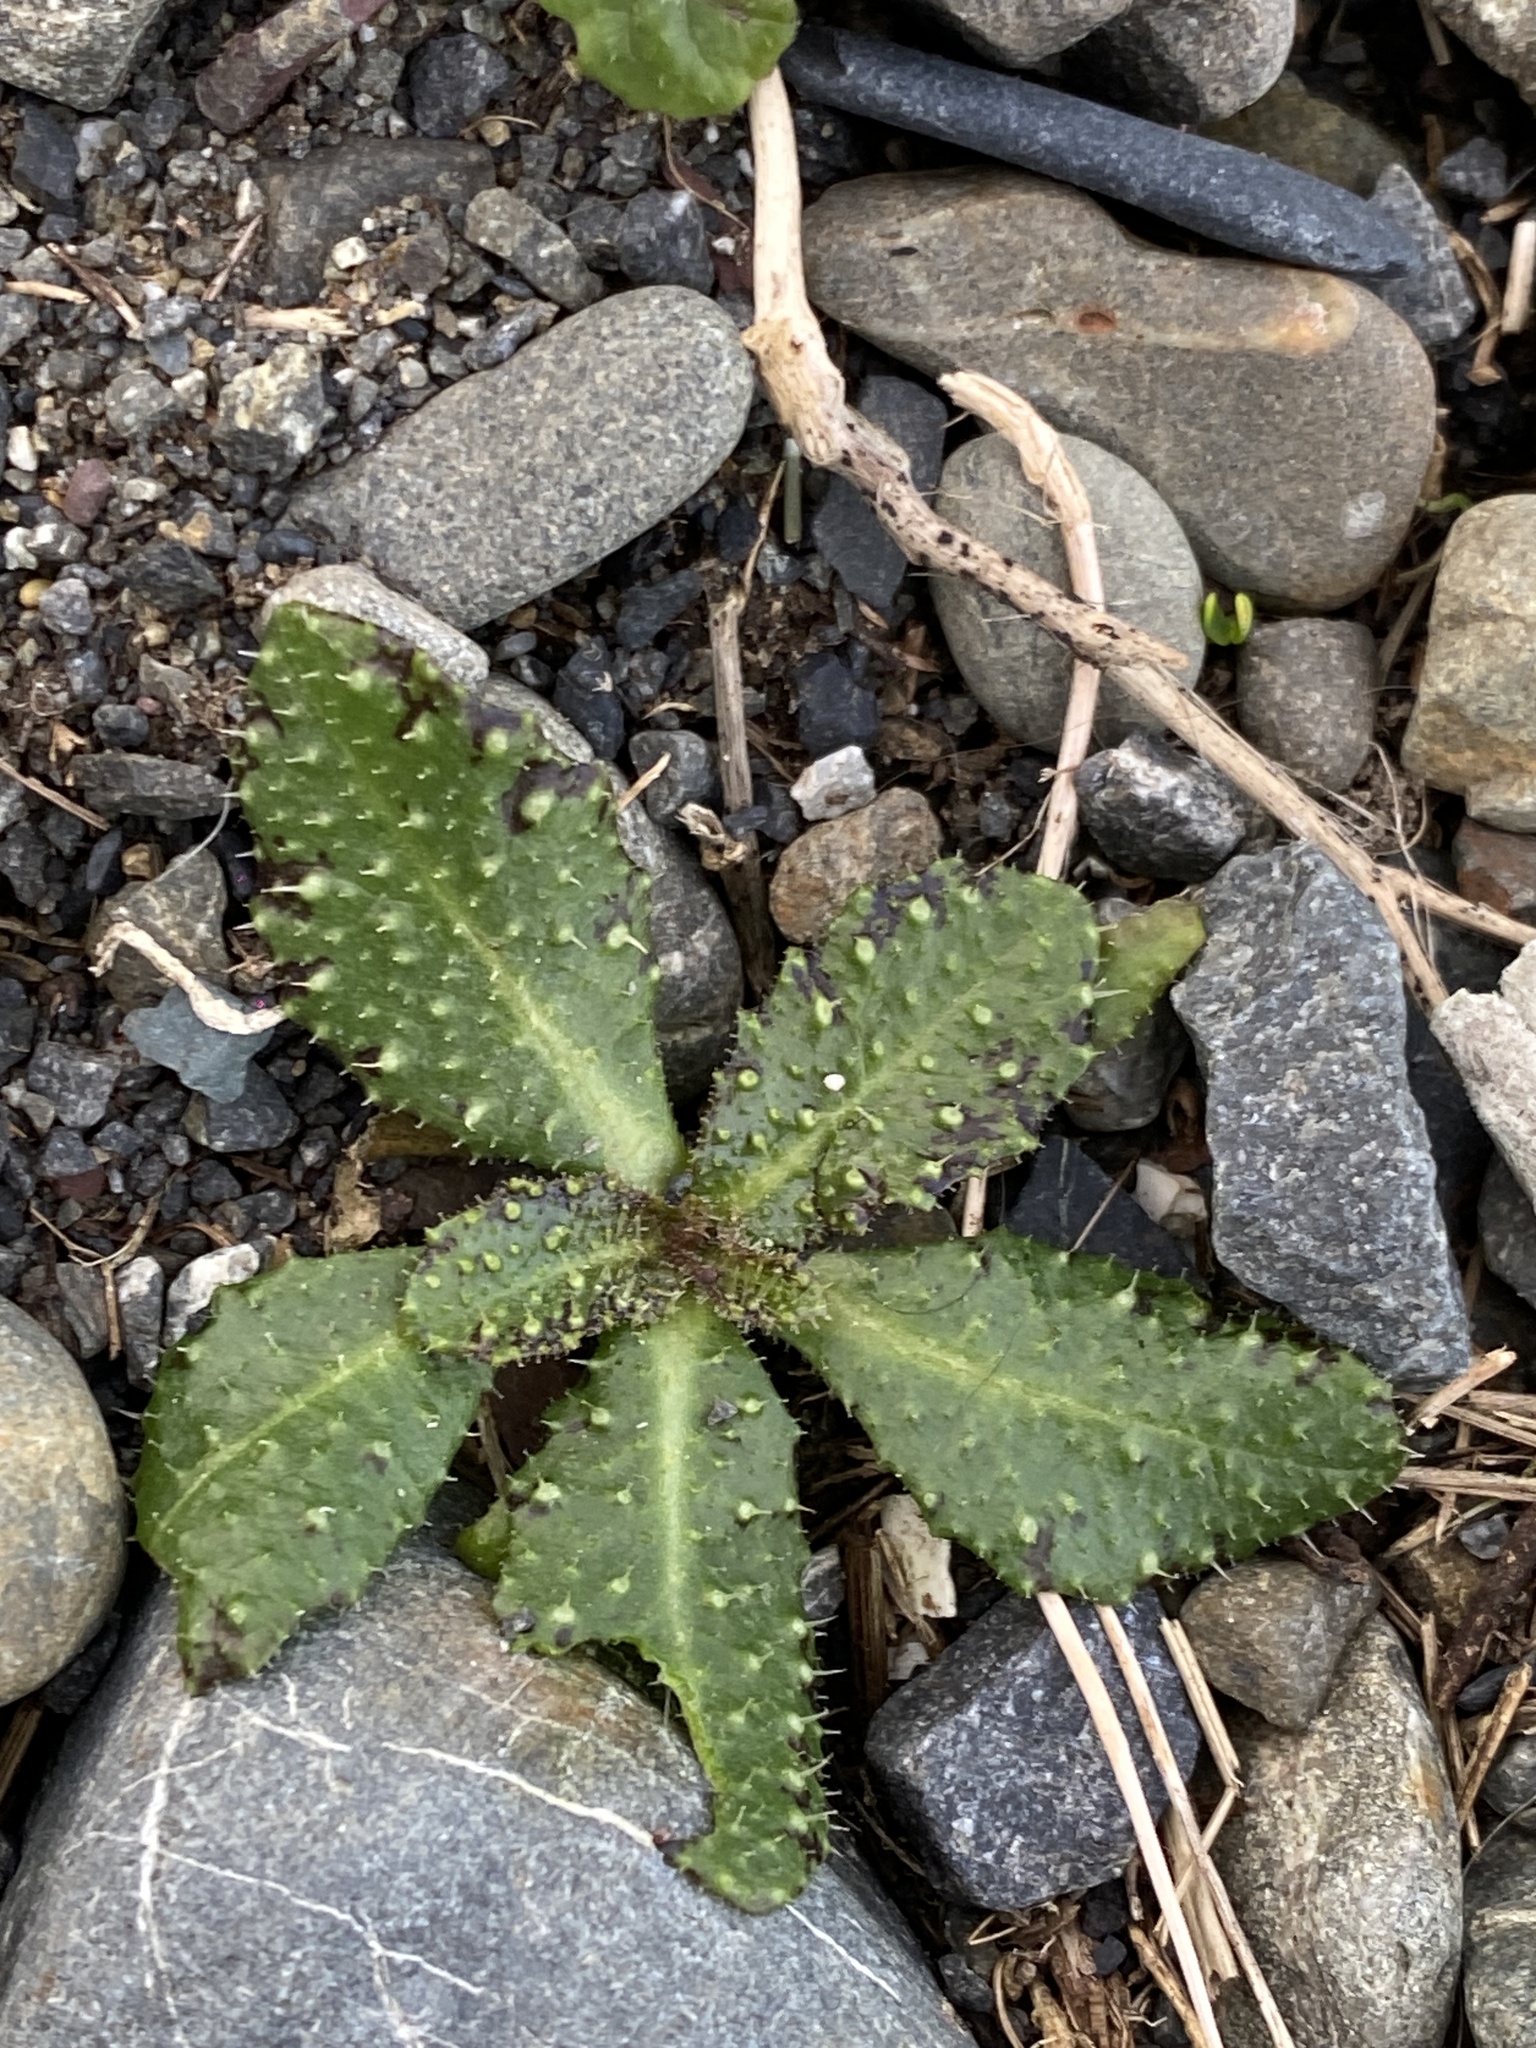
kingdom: Plantae
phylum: Tracheophyta
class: Magnoliopsida
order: Asterales
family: Asteraceae
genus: Helminthotheca
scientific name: Helminthotheca echioides
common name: Ox-tongue
